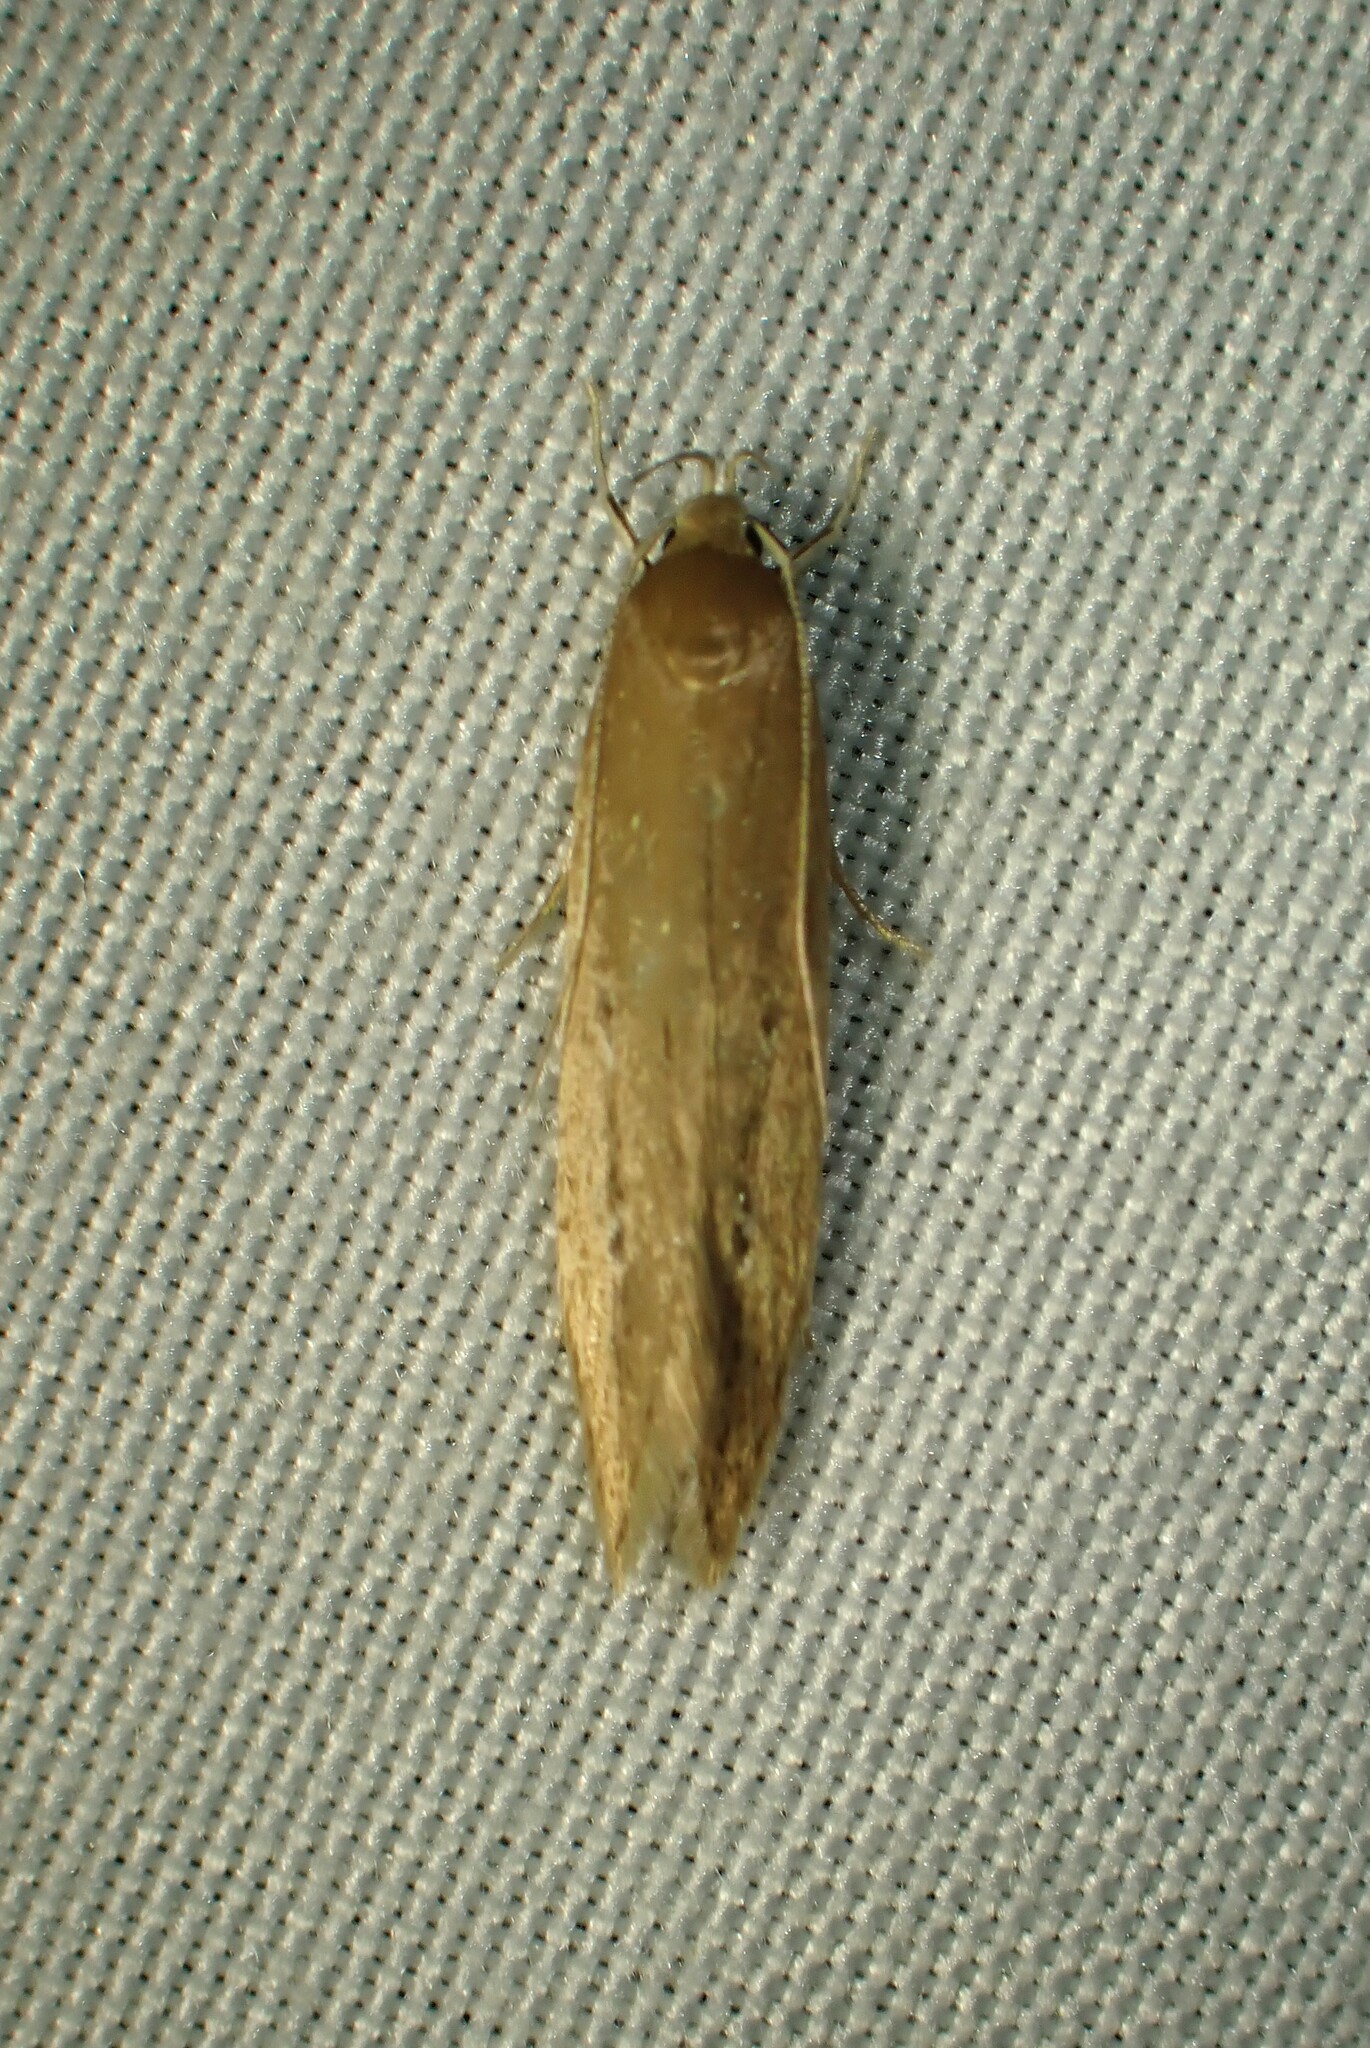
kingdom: Animalia
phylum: Arthropoda
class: Insecta
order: Lepidoptera
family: Cosmopterigidae
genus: Limnaecia
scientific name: Limnaecia phragmitella
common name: Bulrush cosmet
